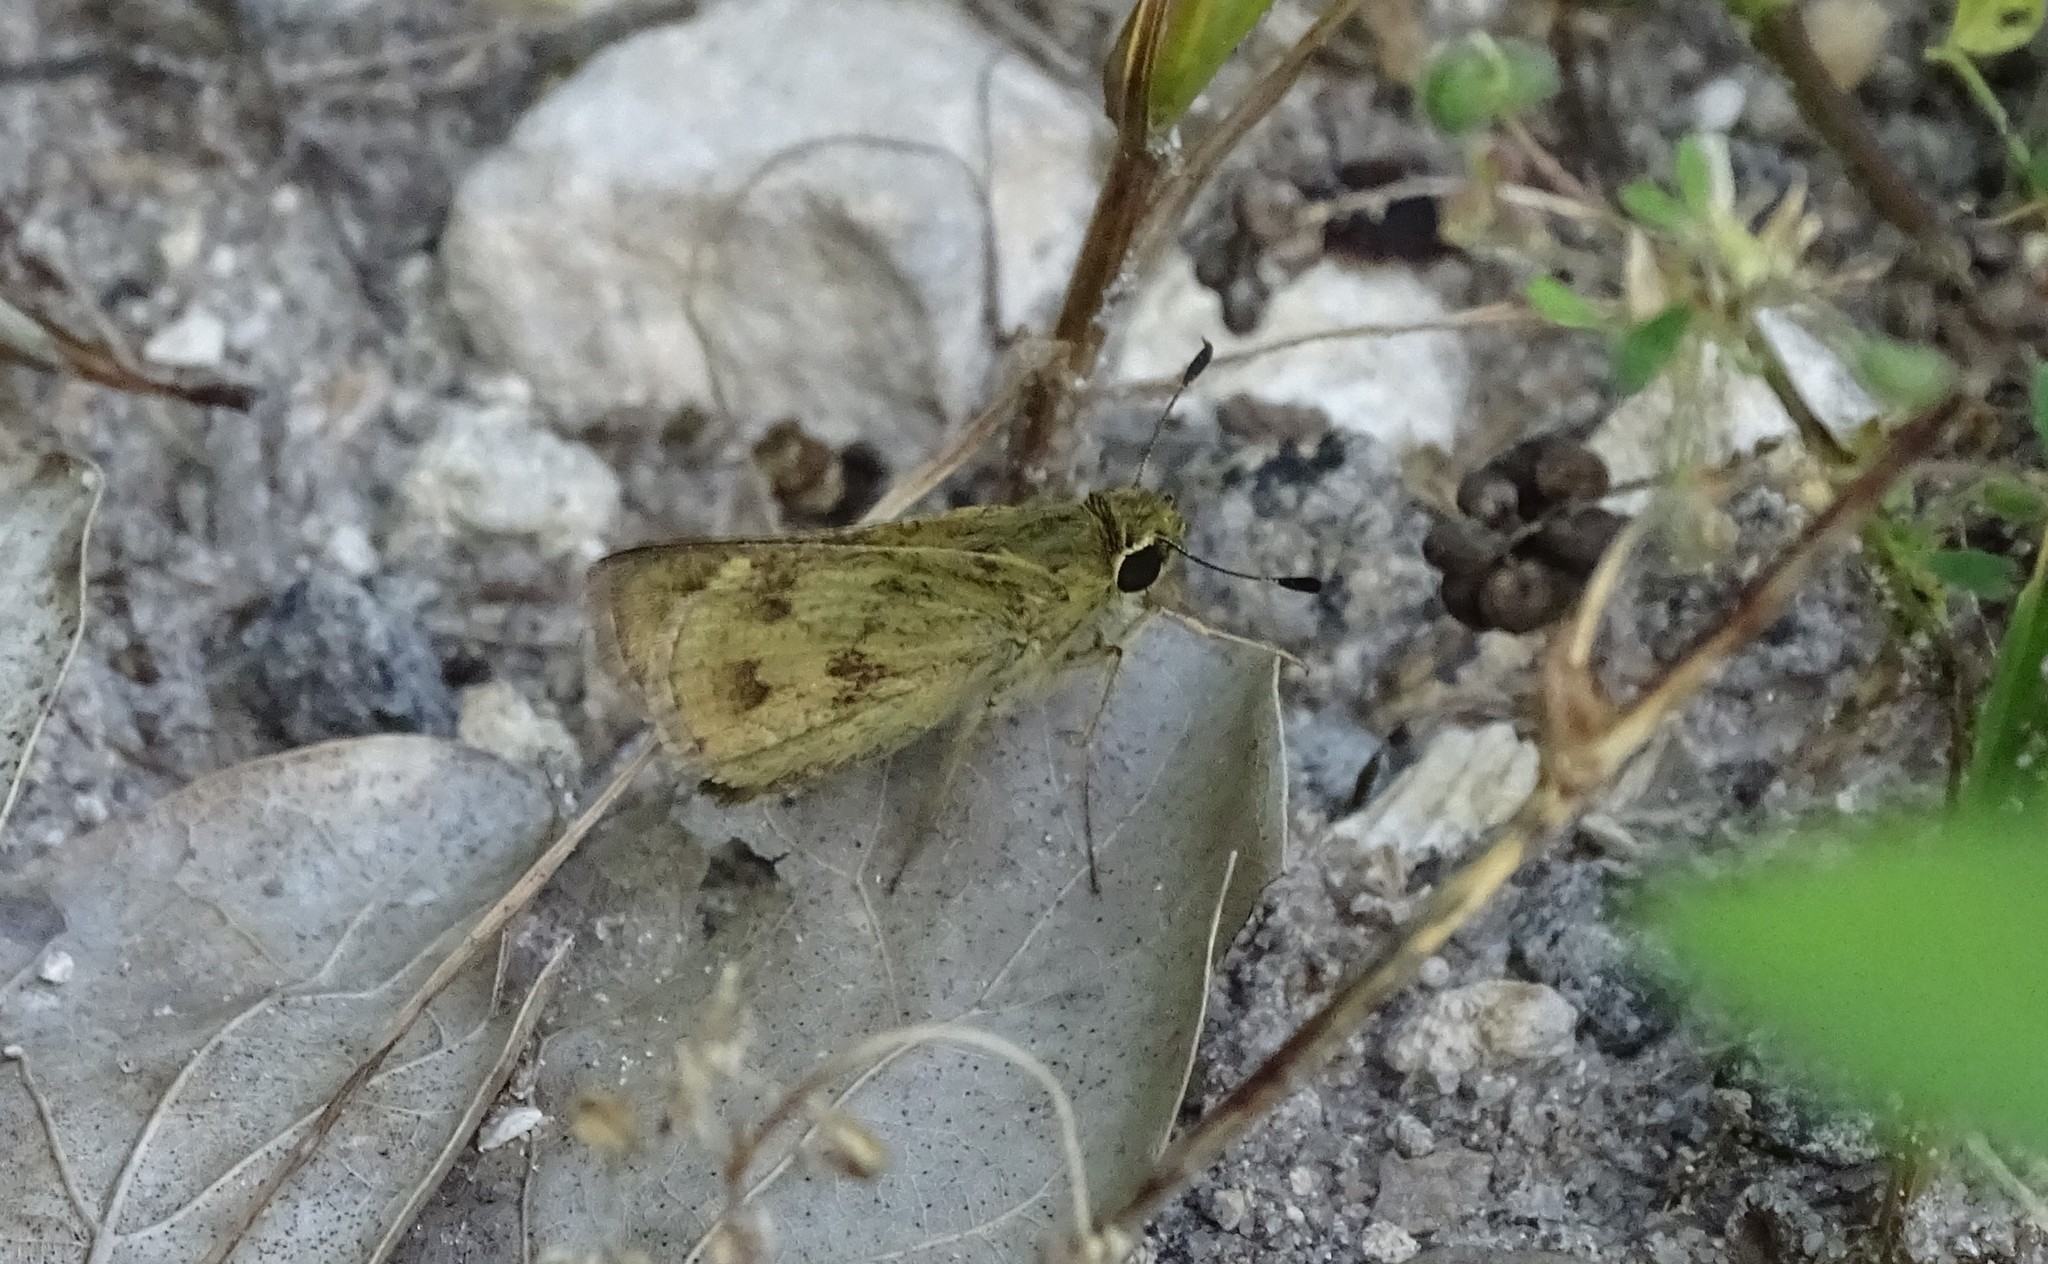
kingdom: Animalia
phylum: Arthropoda
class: Insecta
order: Lepidoptera
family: Hesperiidae
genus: Polites
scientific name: Polites vibex
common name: Whirlabout
